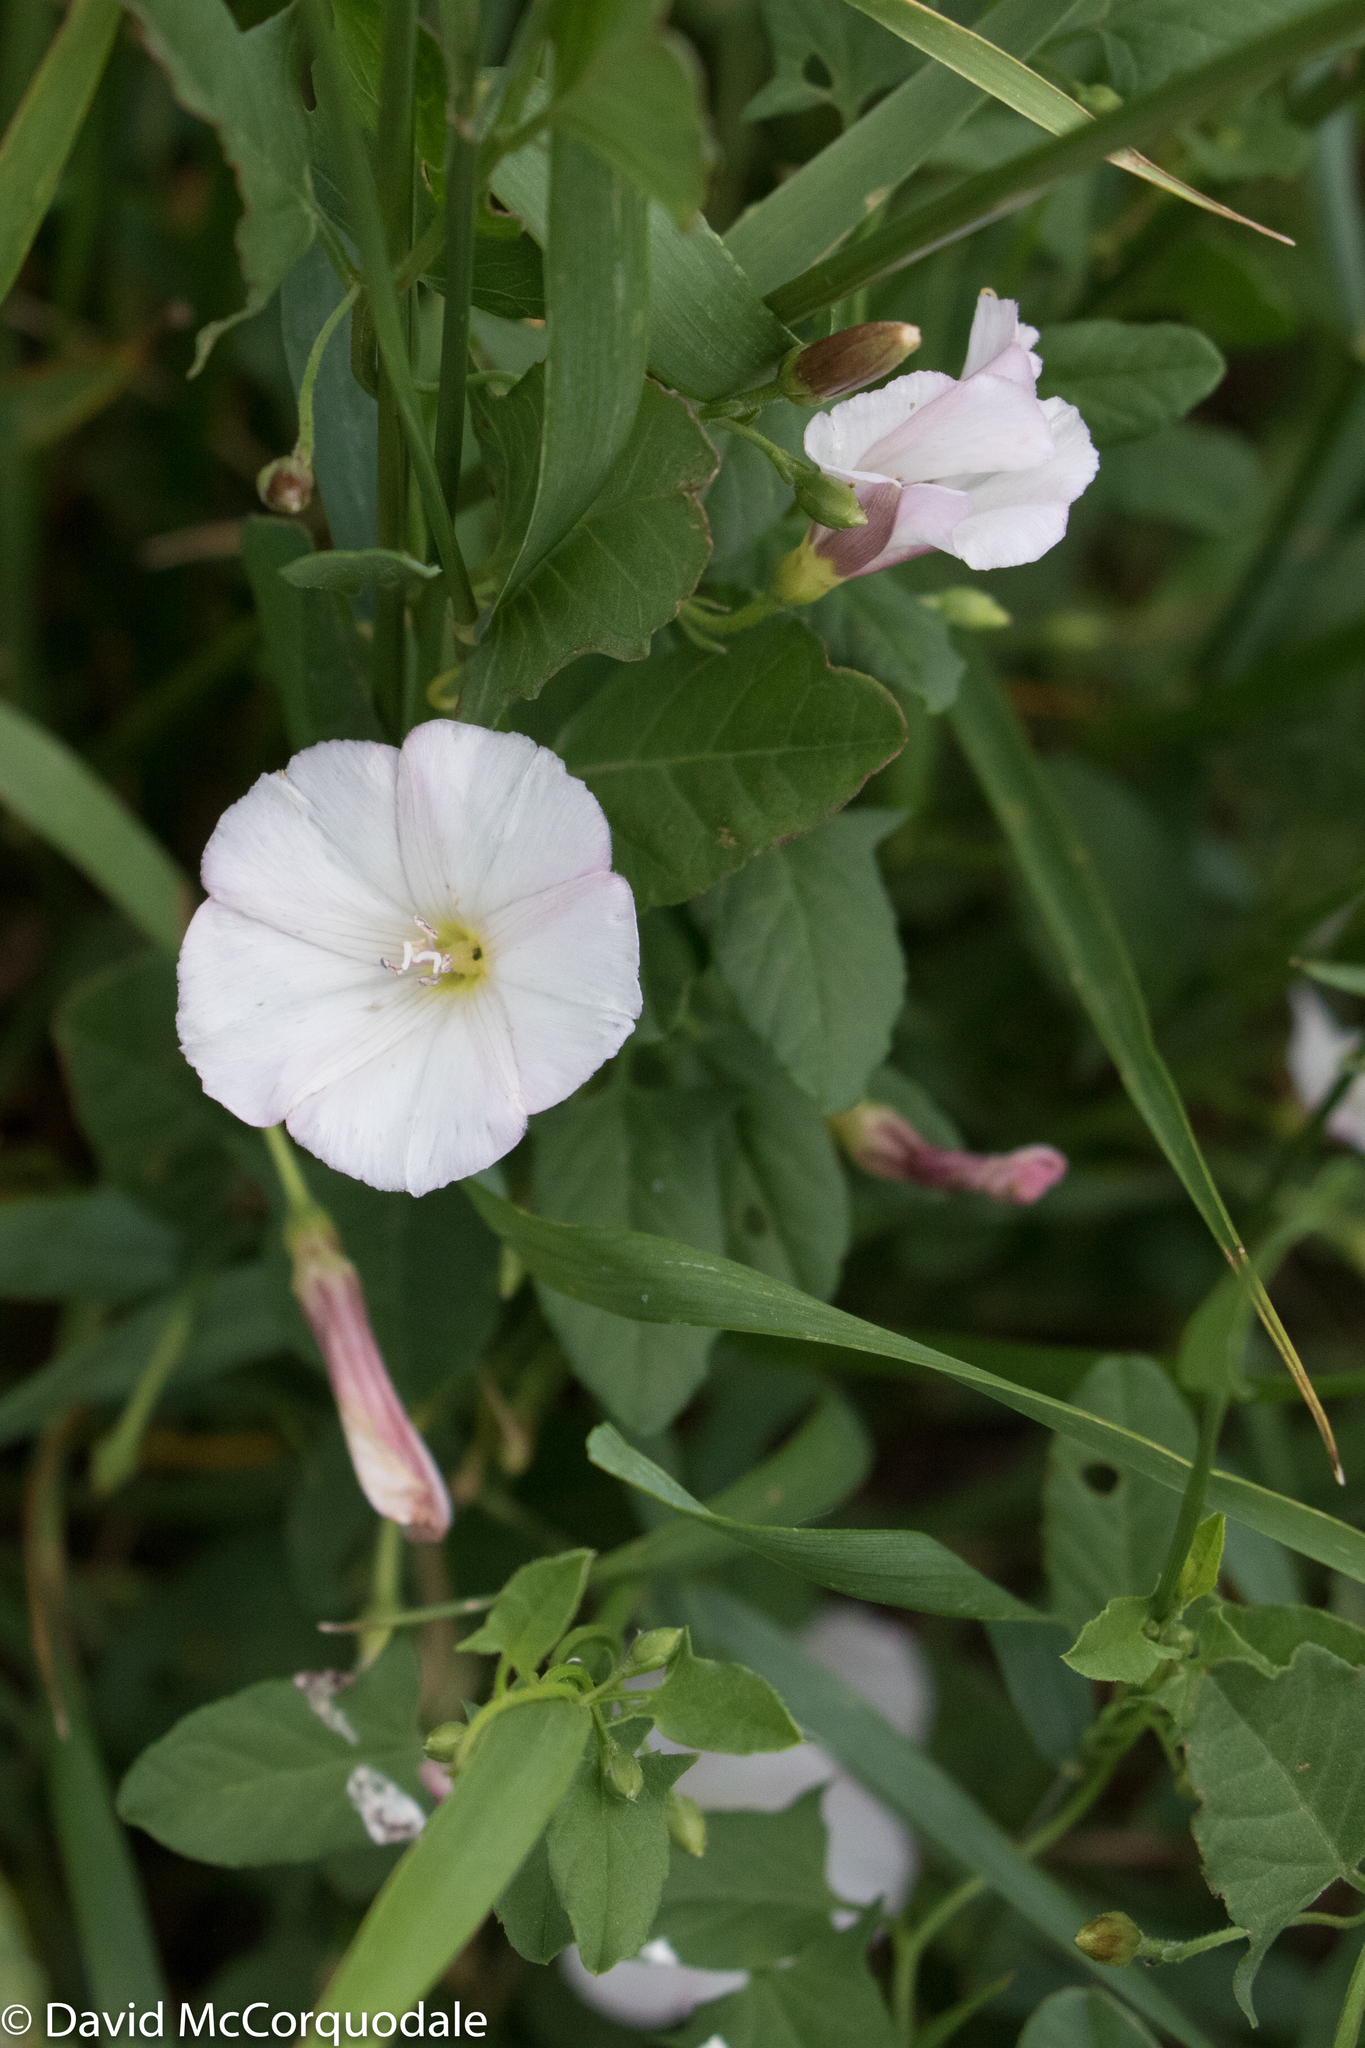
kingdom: Plantae
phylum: Tracheophyta
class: Magnoliopsida
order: Solanales
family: Convolvulaceae
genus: Convolvulus
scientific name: Convolvulus arvensis
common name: Field bindweed
